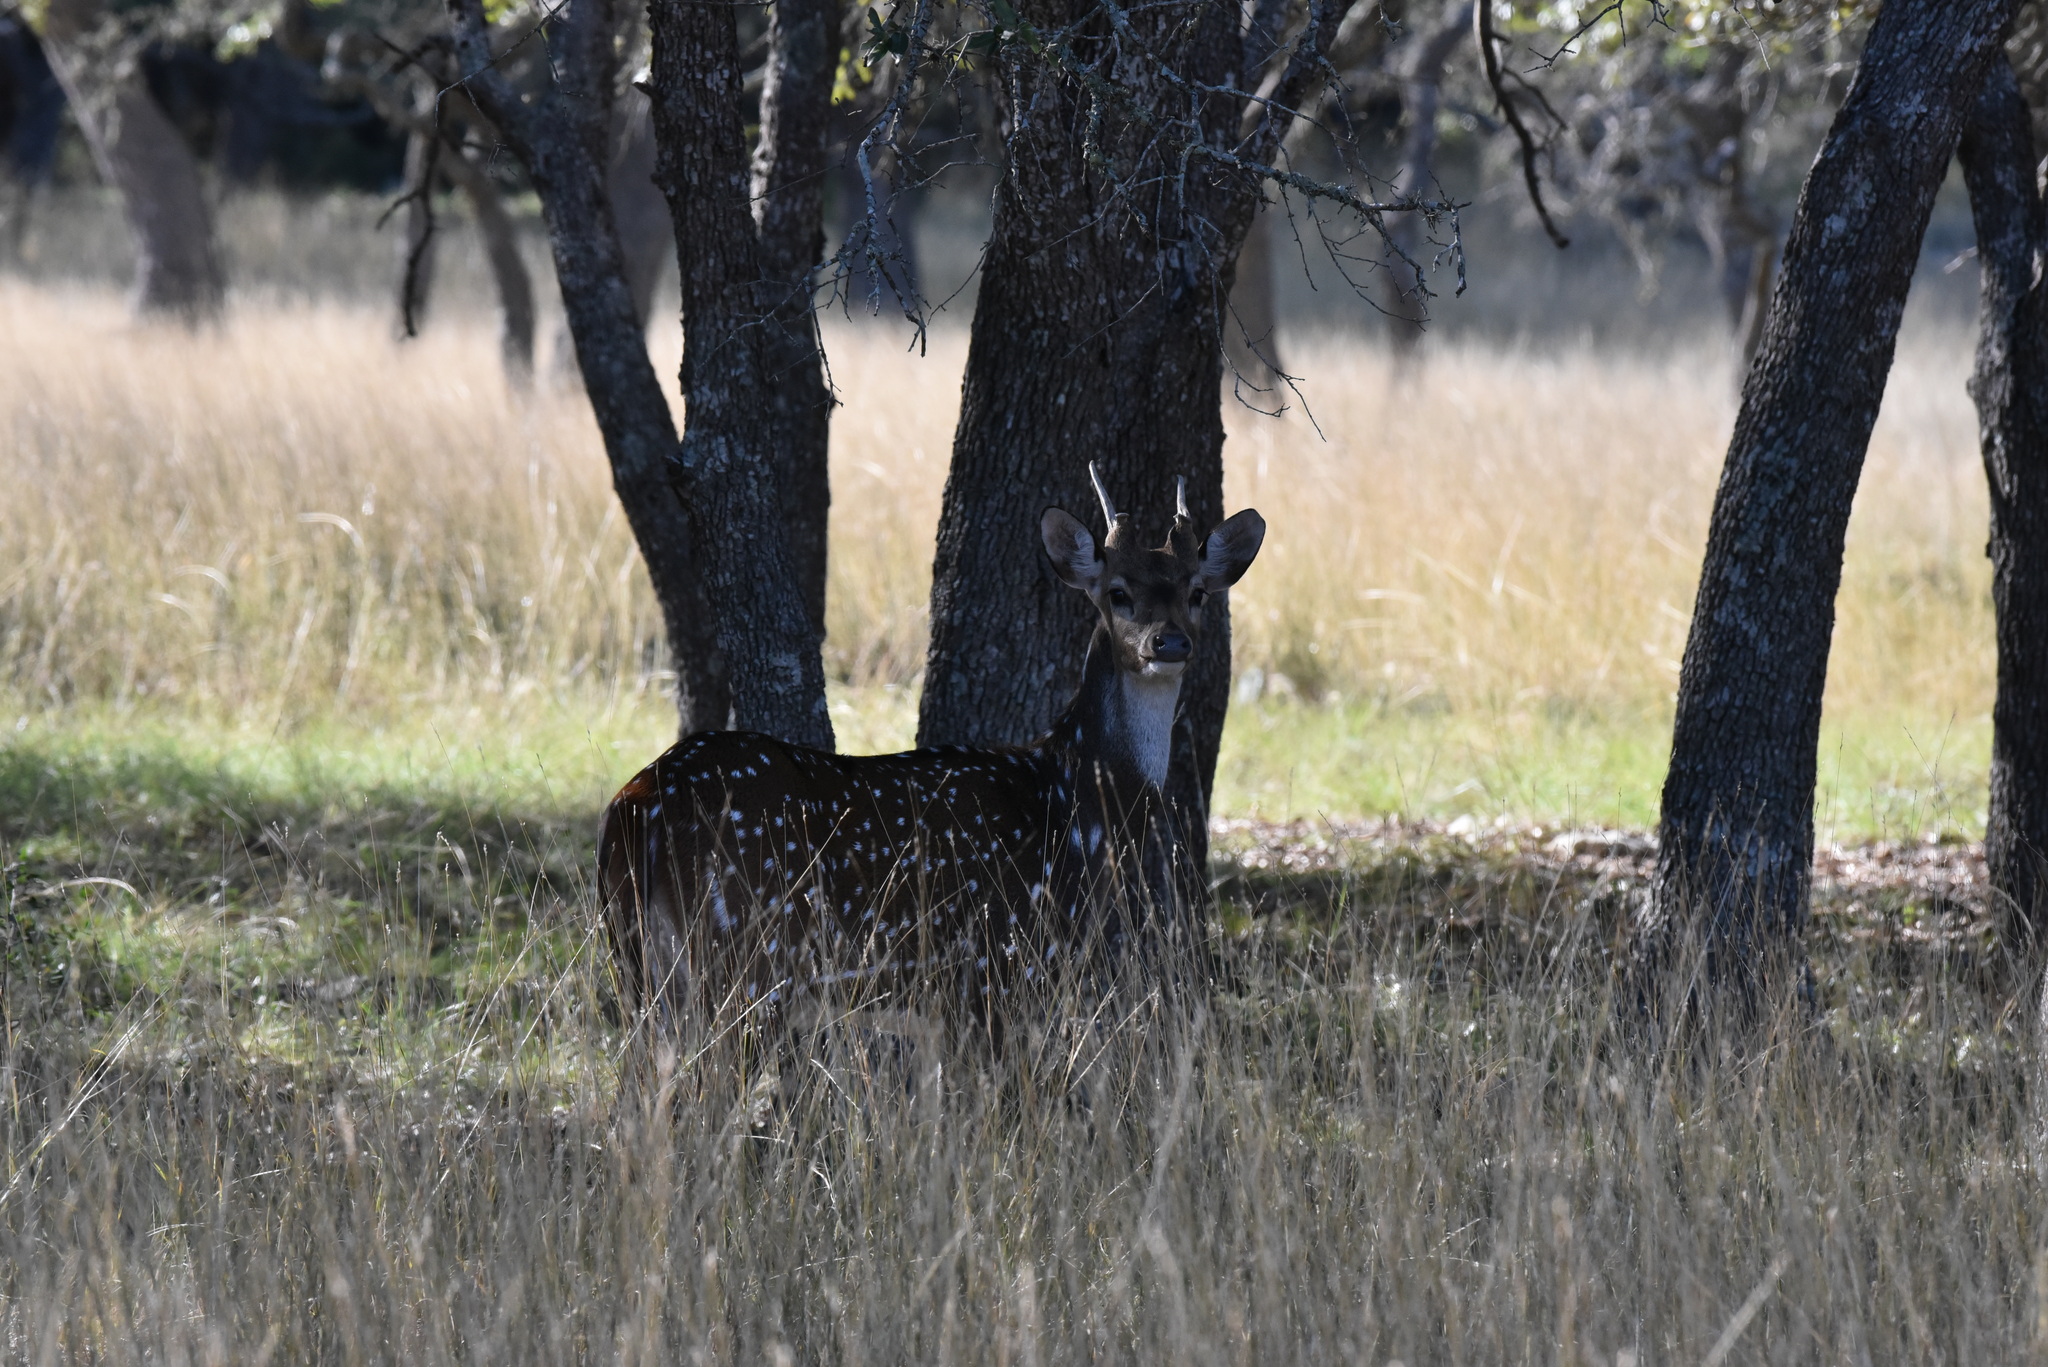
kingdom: Animalia
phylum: Chordata
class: Mammalia
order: Artiodactyla
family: Cervidae
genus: Axis
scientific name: Axis axis
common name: Chital
